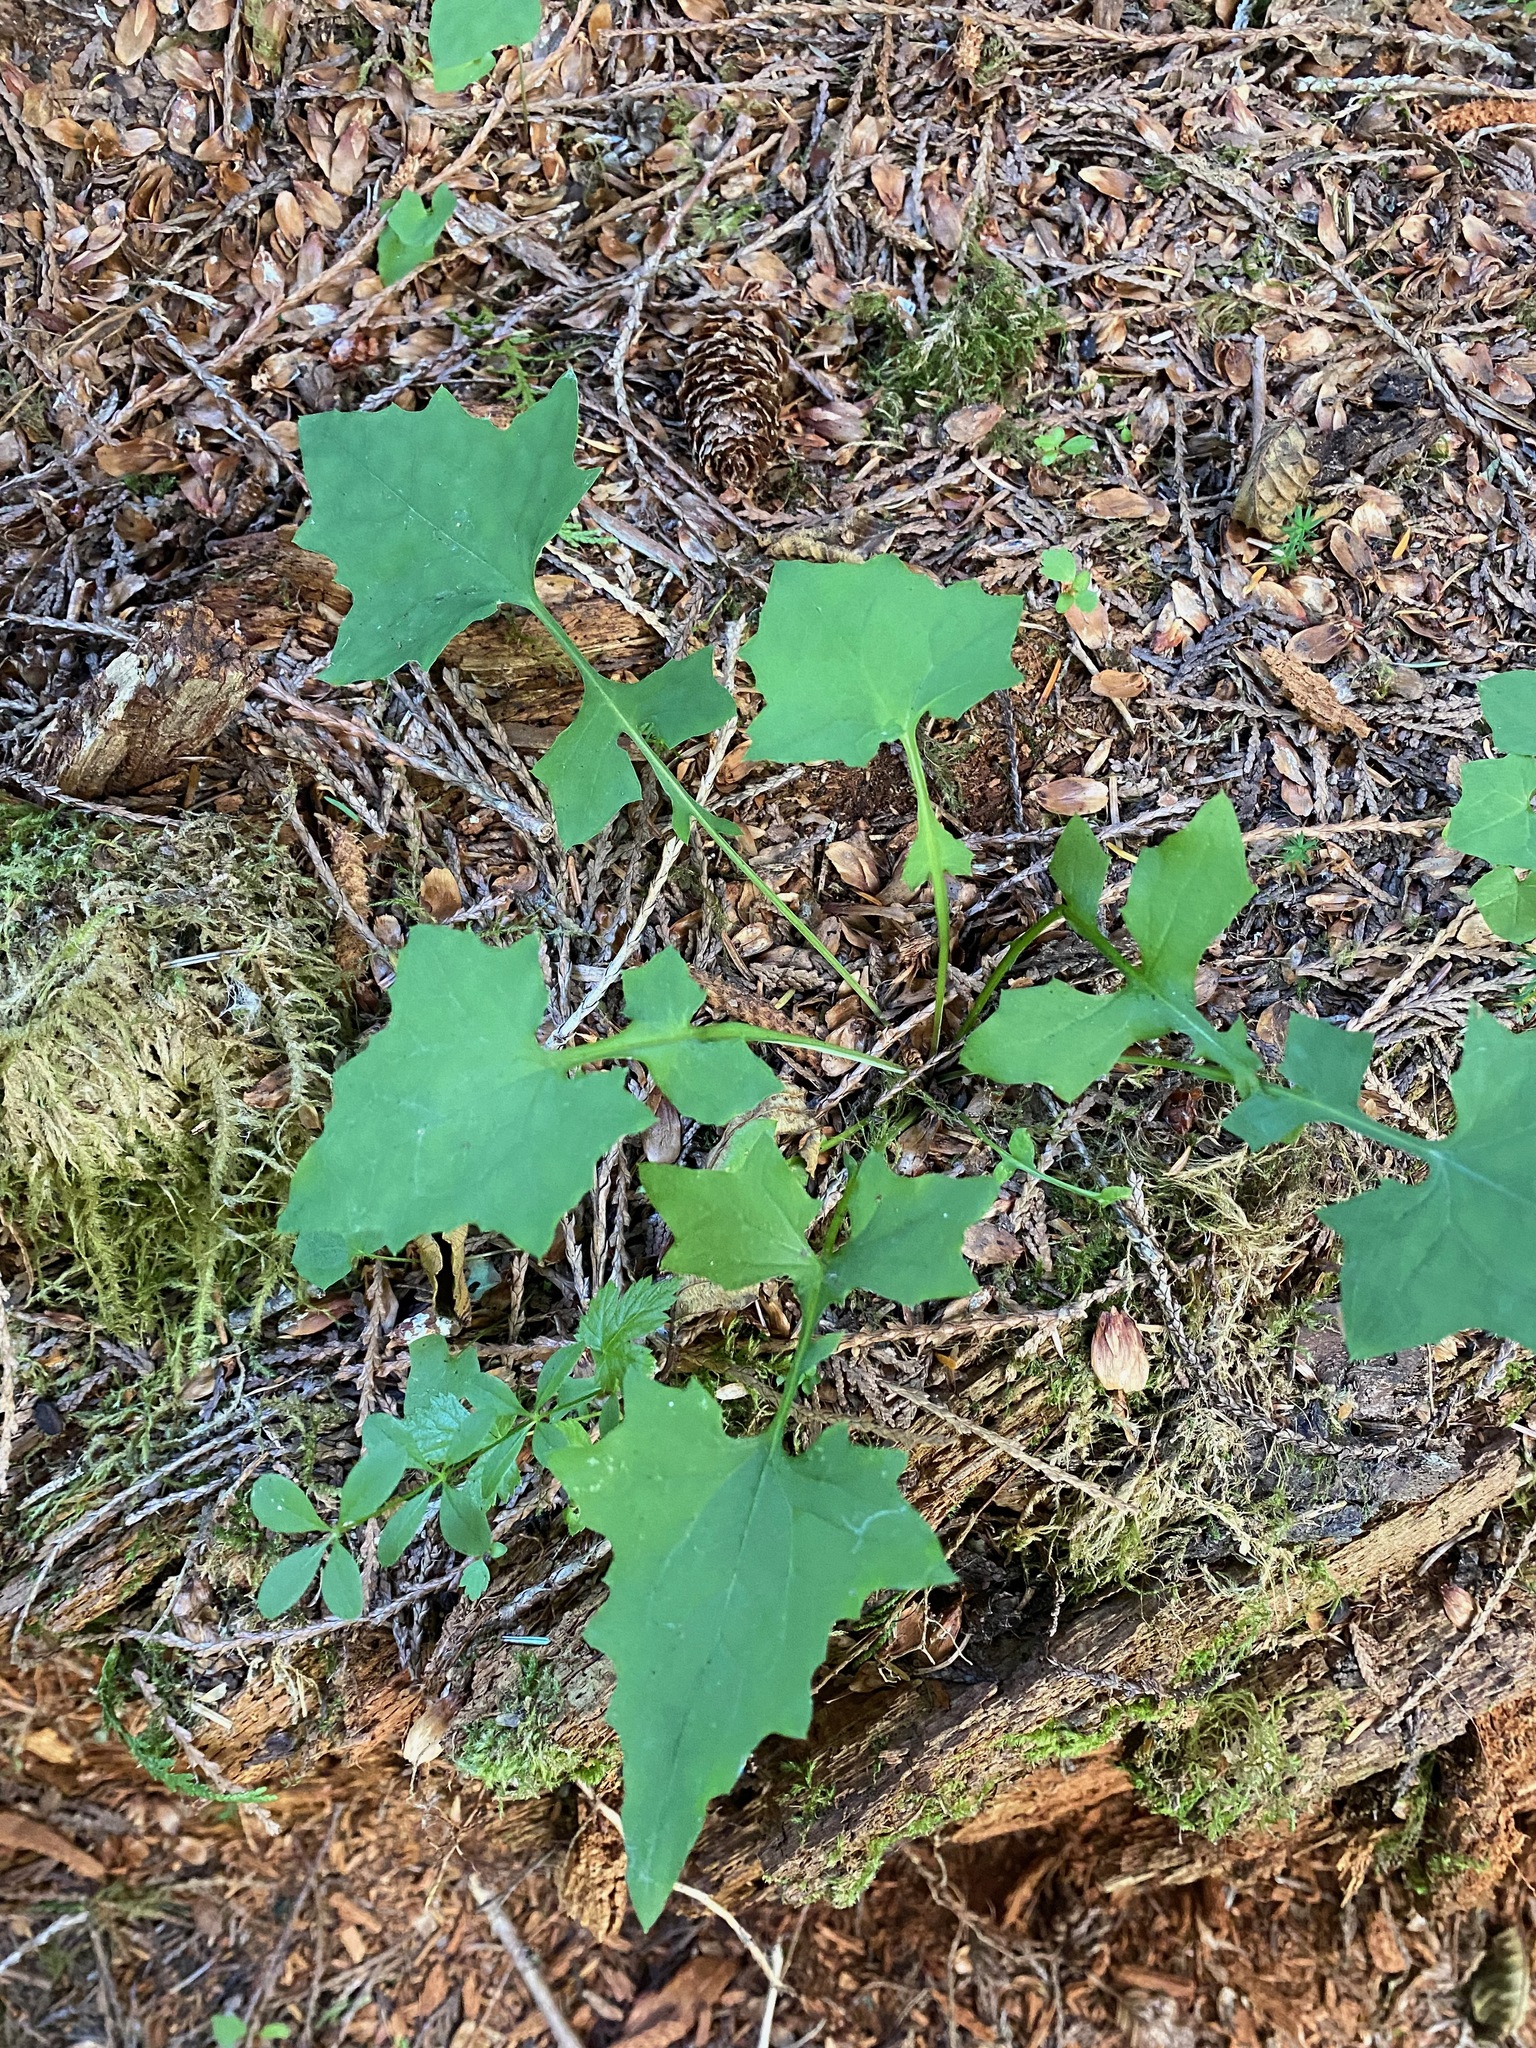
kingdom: Plantae
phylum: Tracheophyta
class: Magnoliopsida
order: Asterales
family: Asteraceae
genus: Mycelis
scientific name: Mycelis muralis
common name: Wall lettuce
